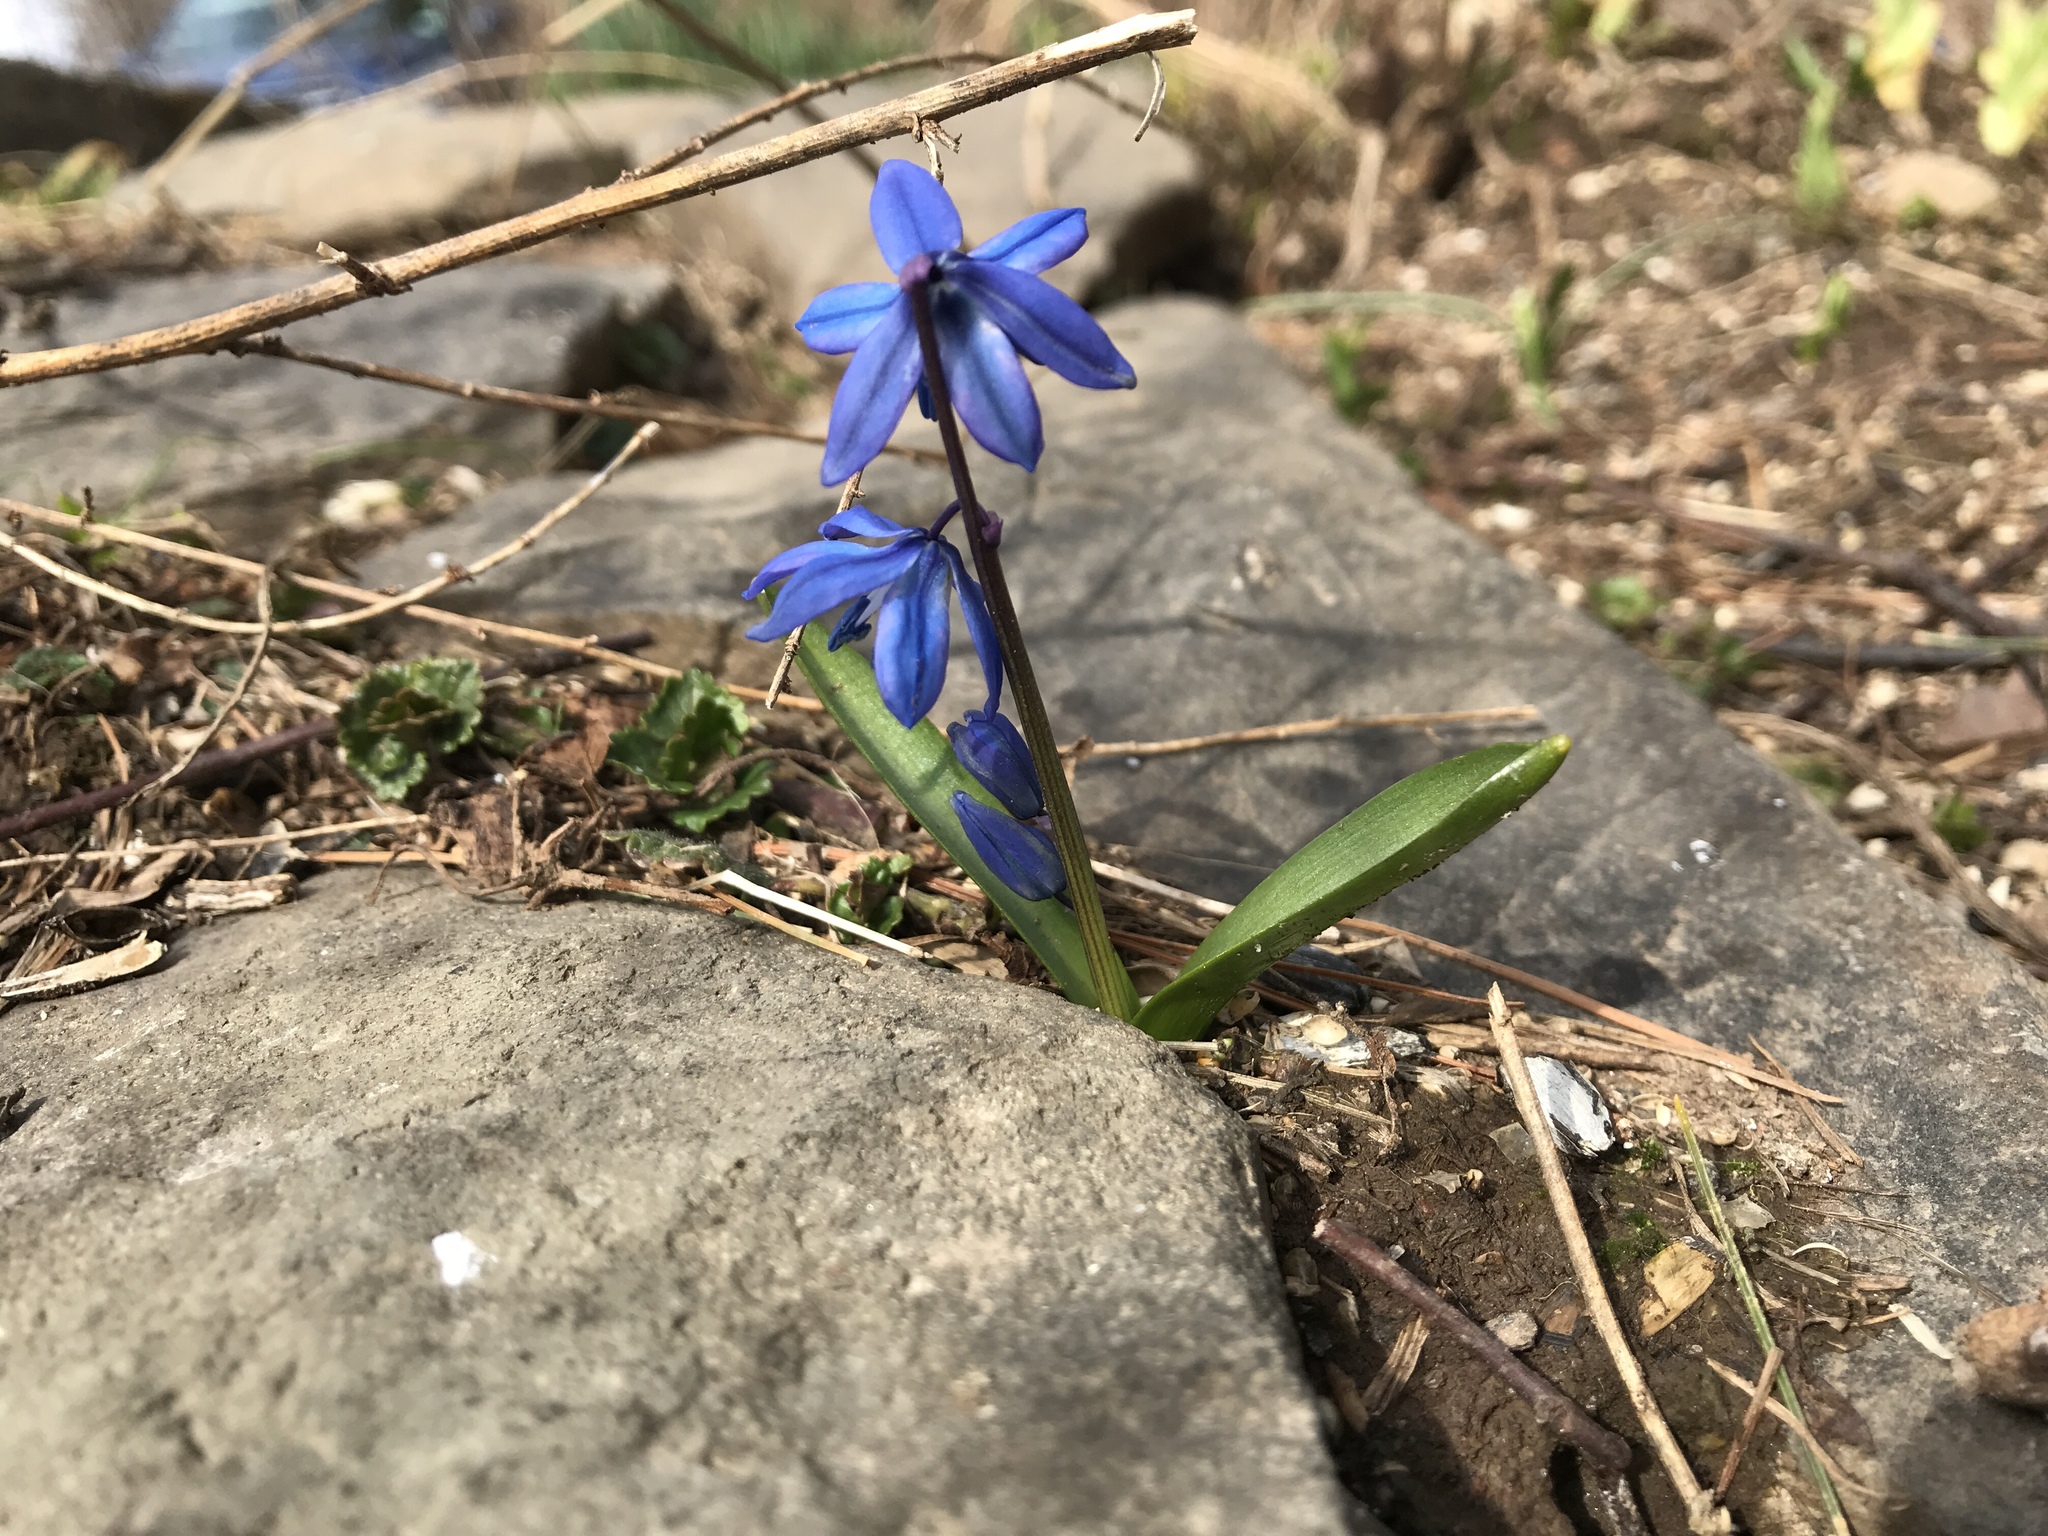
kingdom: Plantae
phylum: Tracheophyta
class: Liliopsida
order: Asparagales
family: Asparagaceae
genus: Scilla
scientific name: Scilla siberica
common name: Siberian squill
